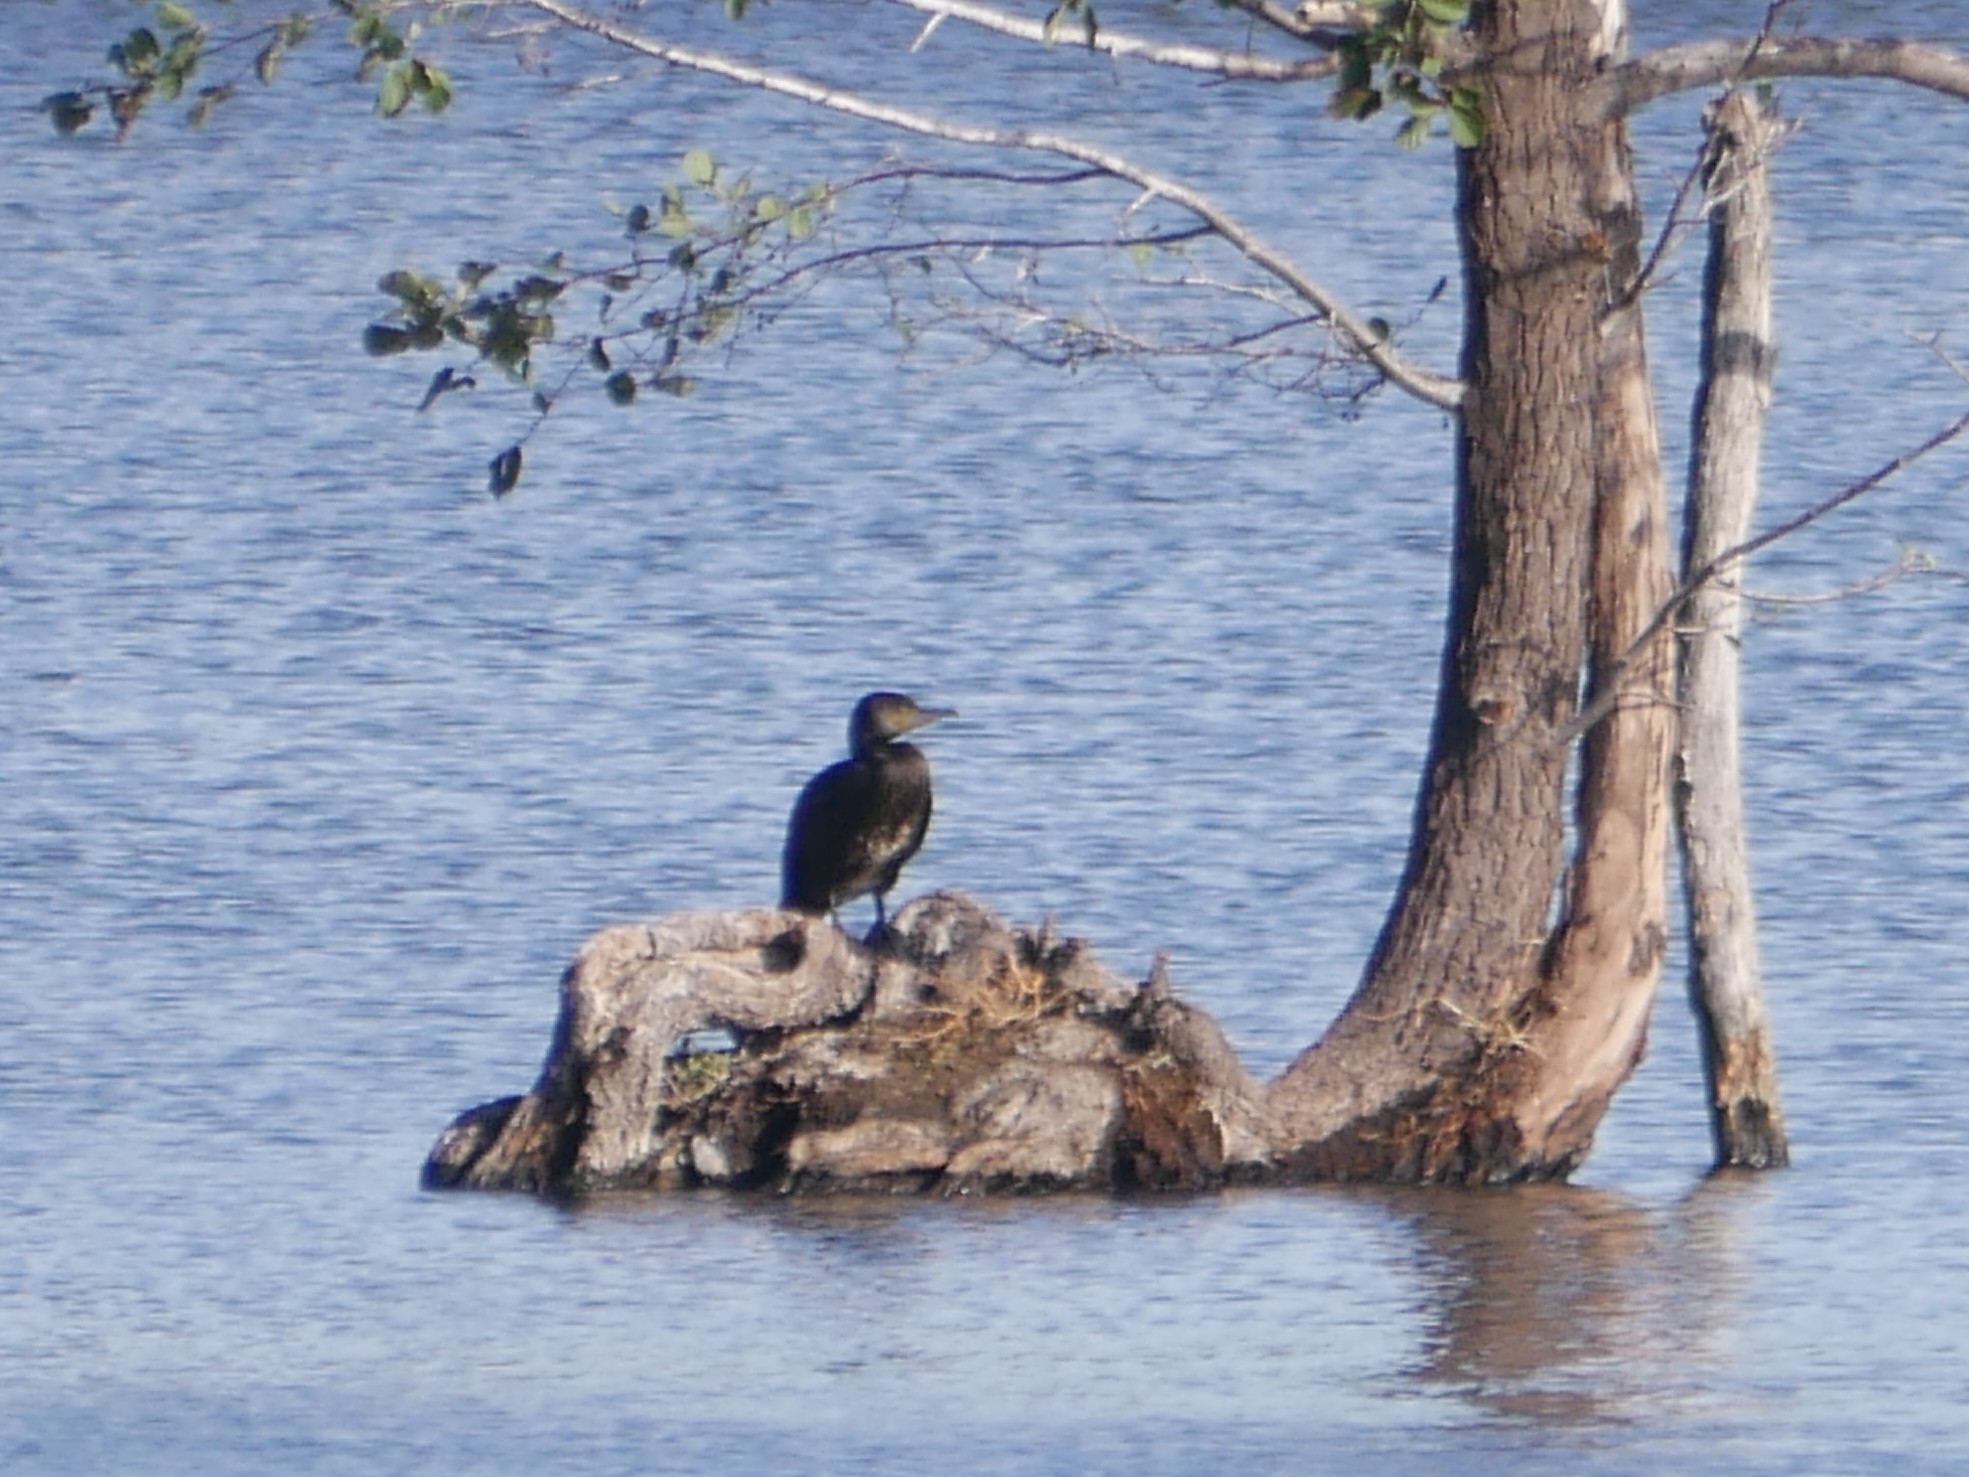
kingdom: Animalia
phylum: Chordata
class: Aves
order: Suliformes
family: Phalacrocoracidae
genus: Phalacrocorax
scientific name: Phalacrocorax carbo
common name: Great cormorant
